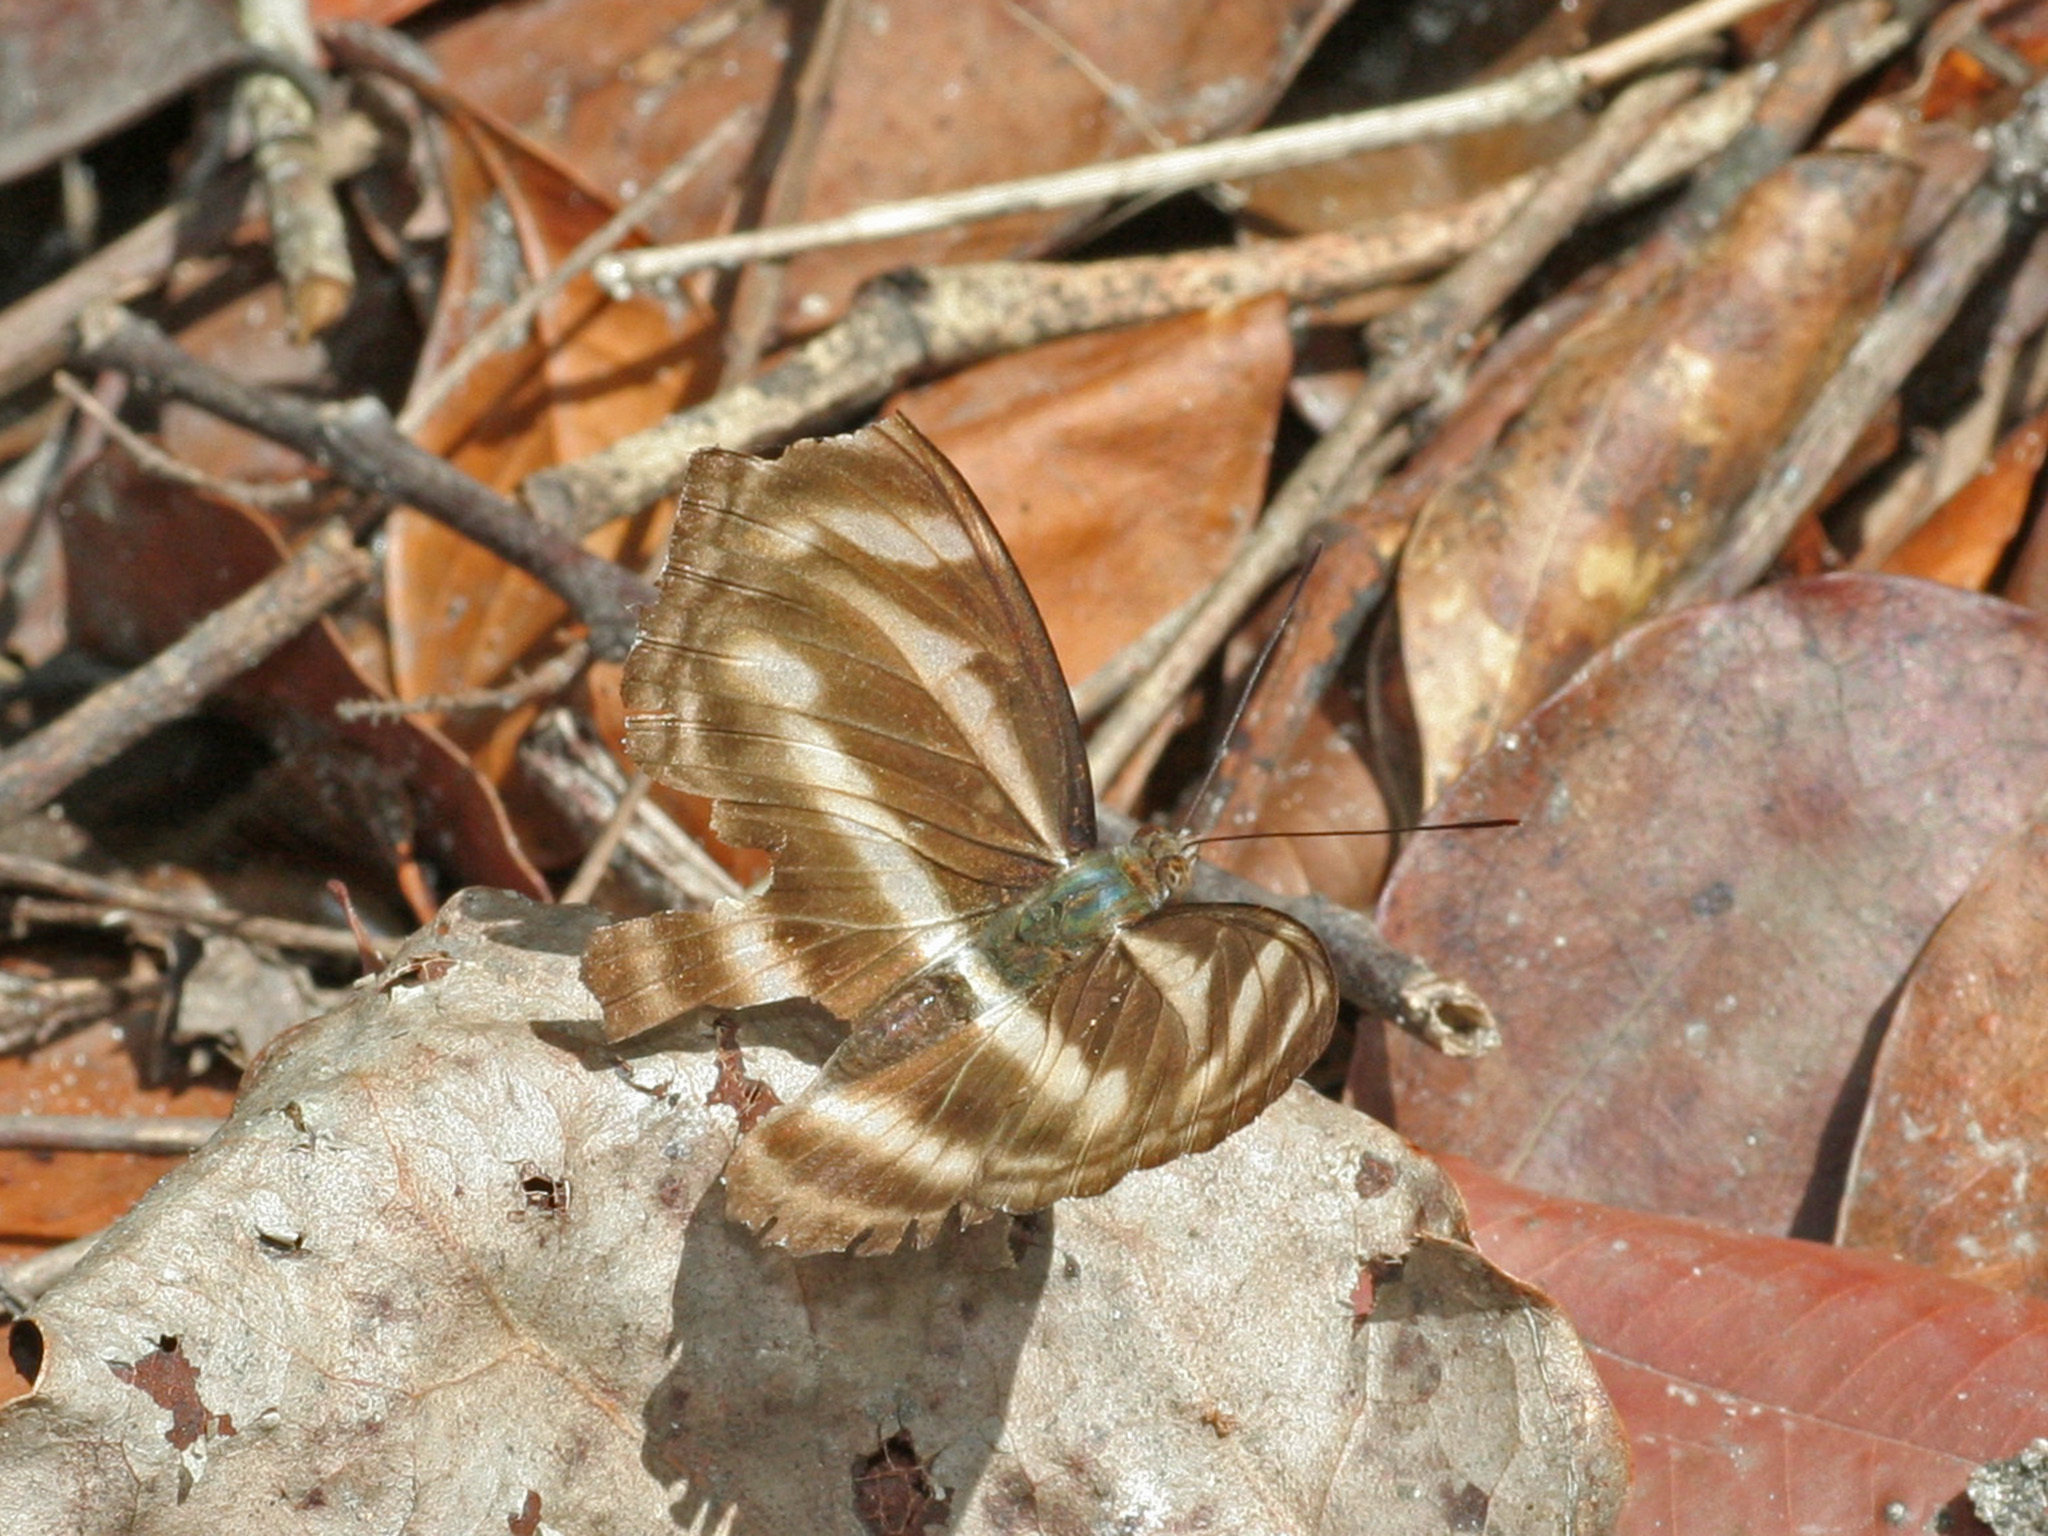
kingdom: Animalia
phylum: Arthropoda
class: Insecta
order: Lepidoptera
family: Nymphalidae
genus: Parathyma
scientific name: Parathyma nefte
